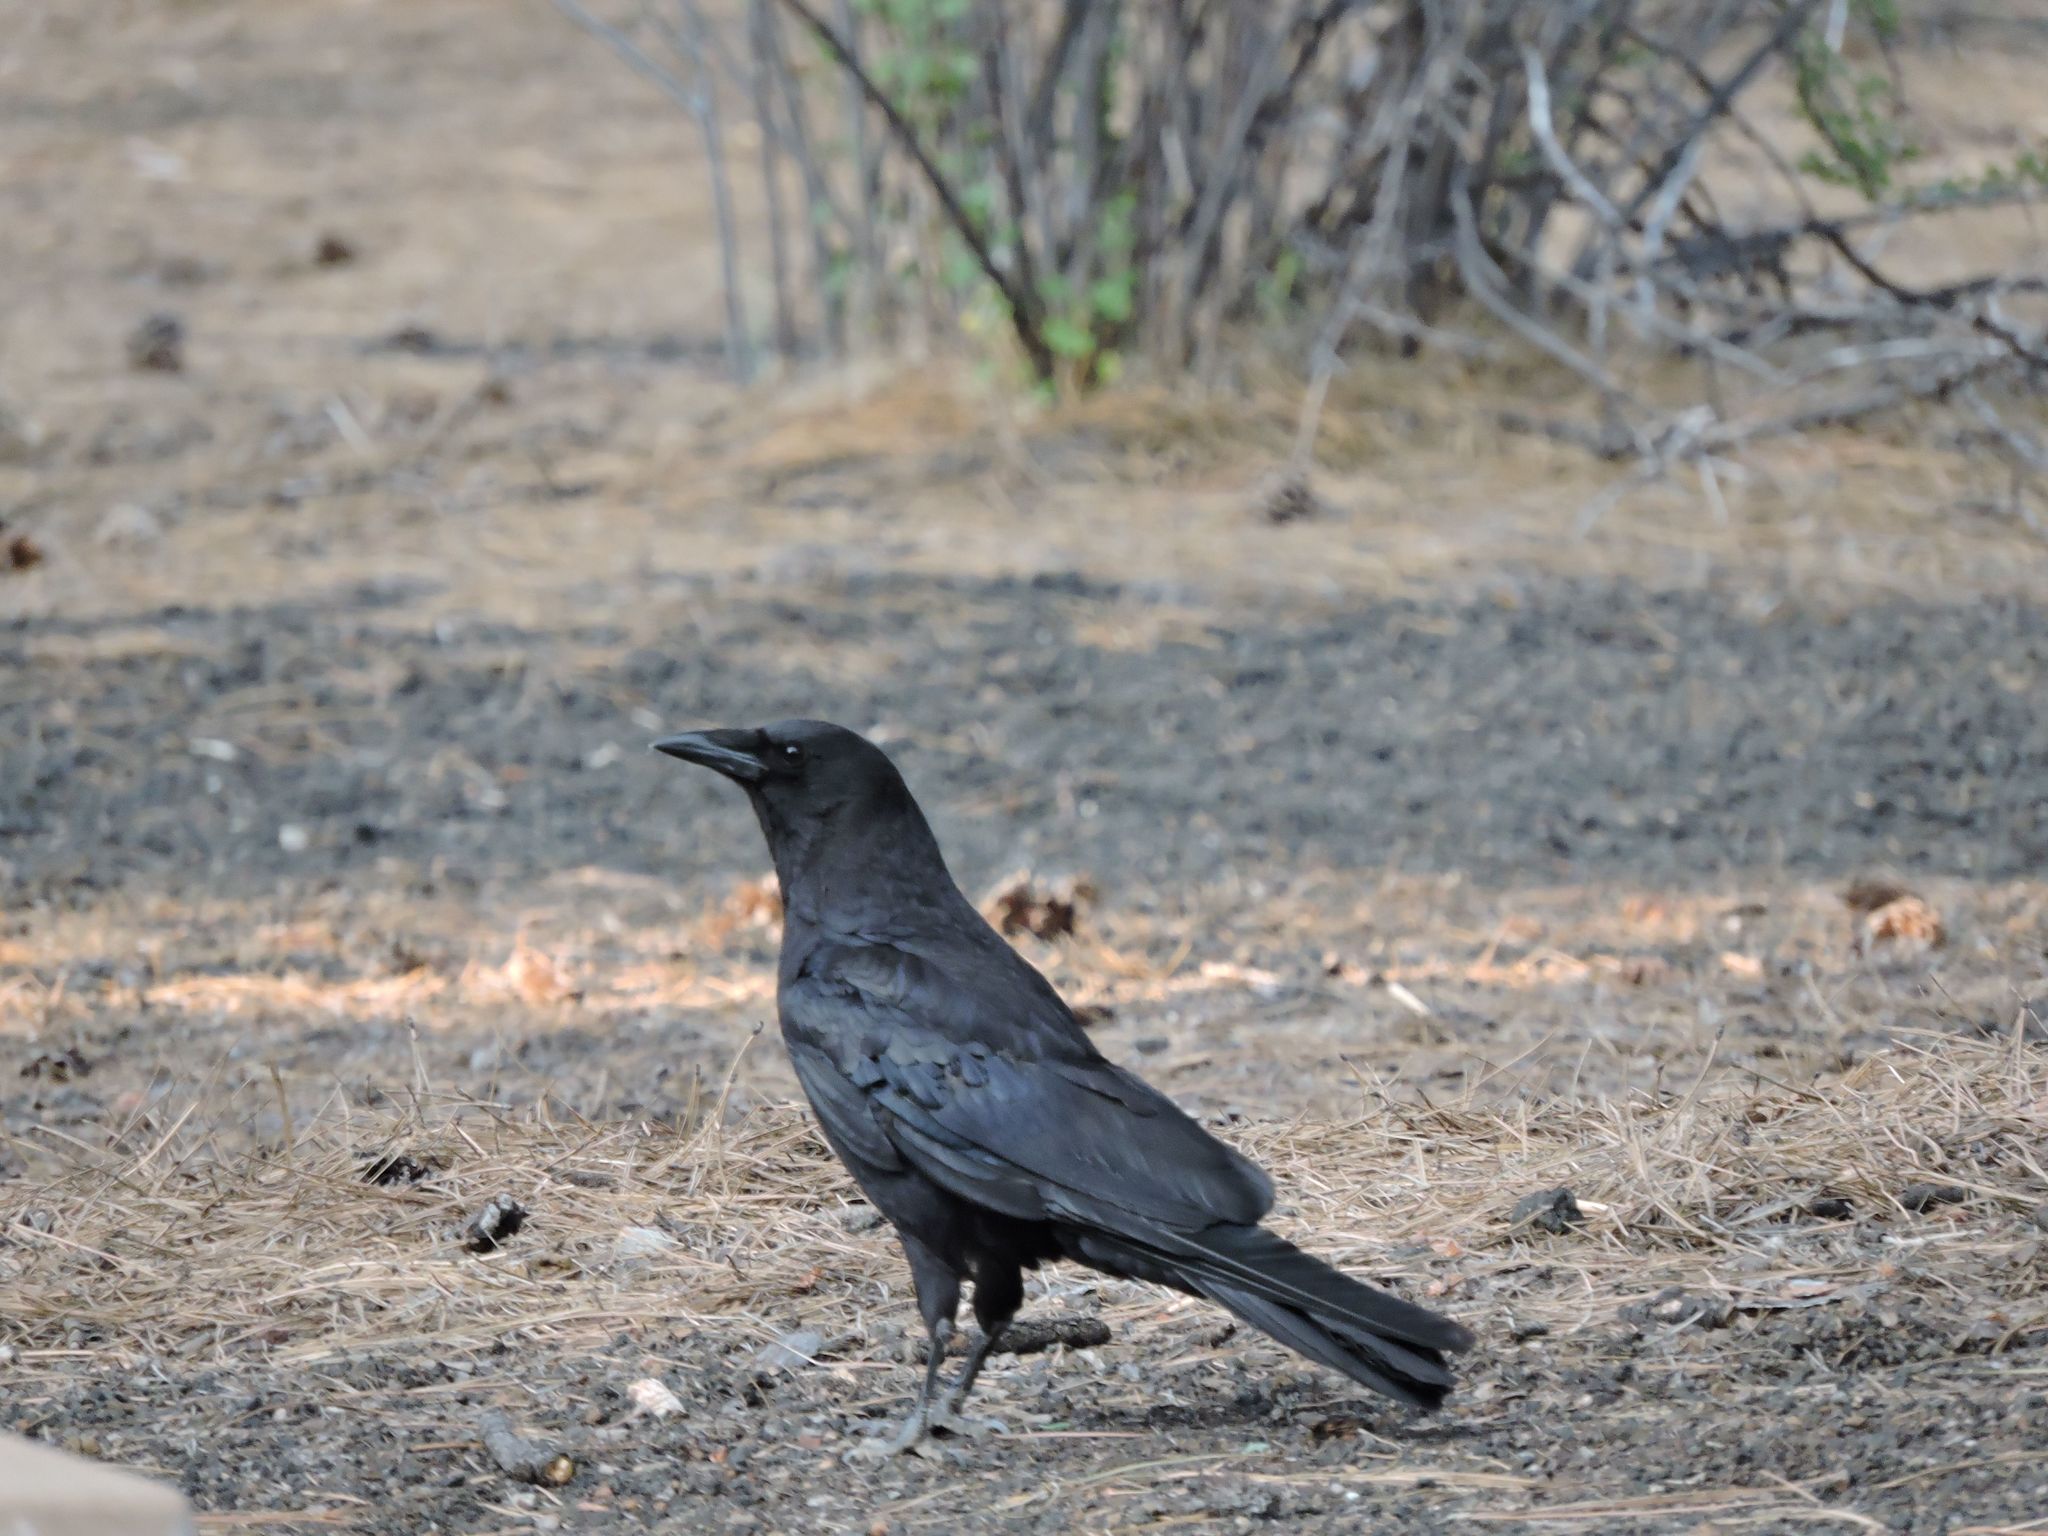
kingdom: Animalia
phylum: Chordata
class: Aves
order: Passeriformes
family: Corvidae
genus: Corvus
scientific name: Corvus brachyrhynchos
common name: American crow
